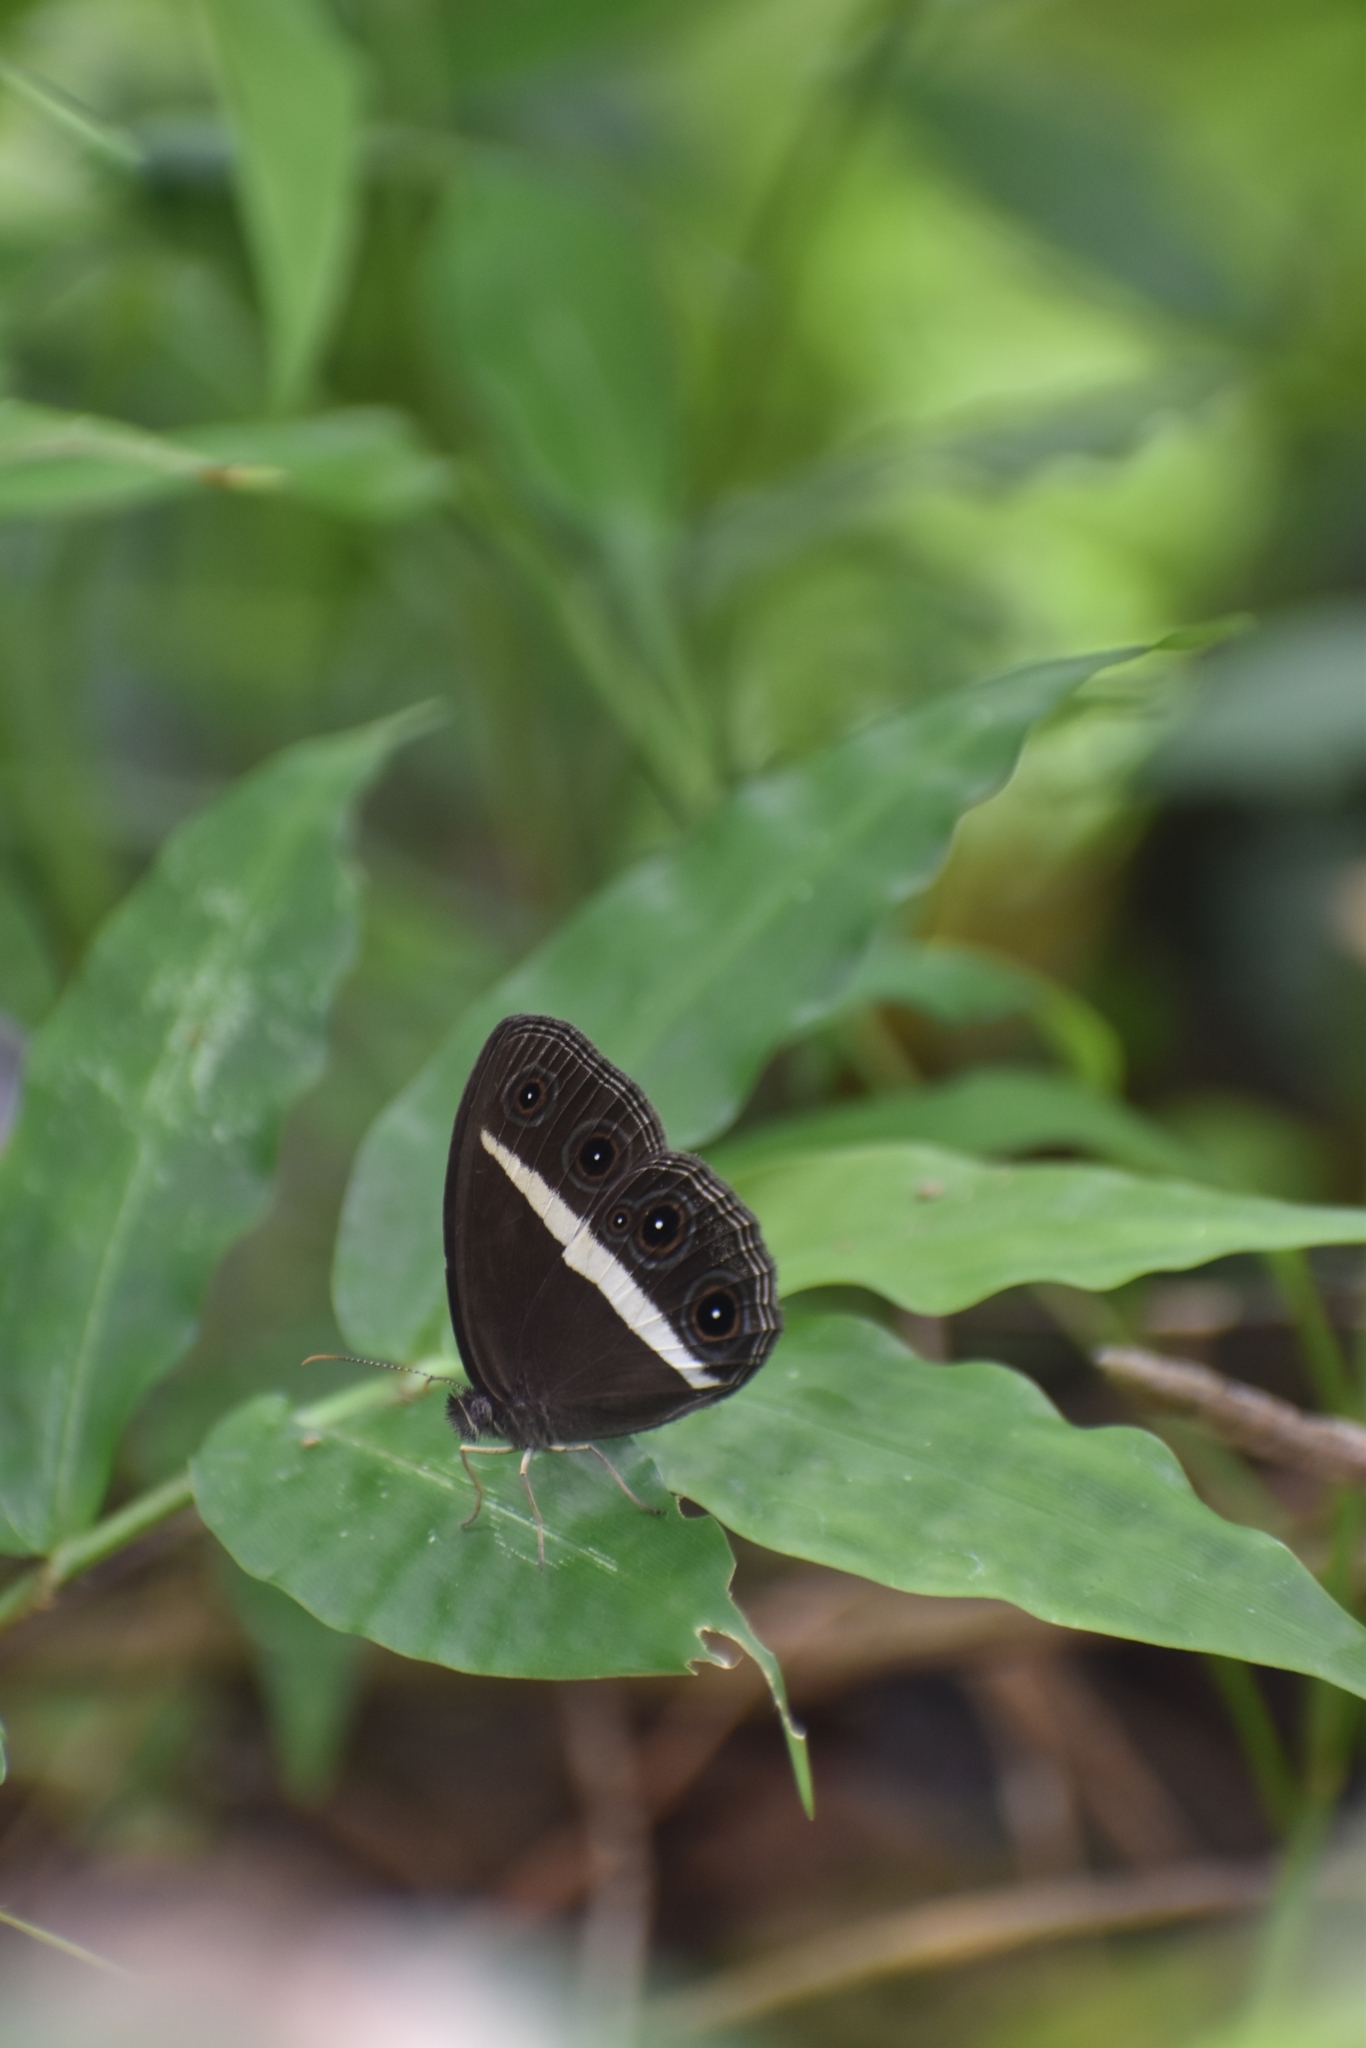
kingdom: Animalia
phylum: Arthropoda
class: Insecta
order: Lepidoptera
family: Nymphalidae
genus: Orsotriaena
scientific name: Orsotriaena medus
